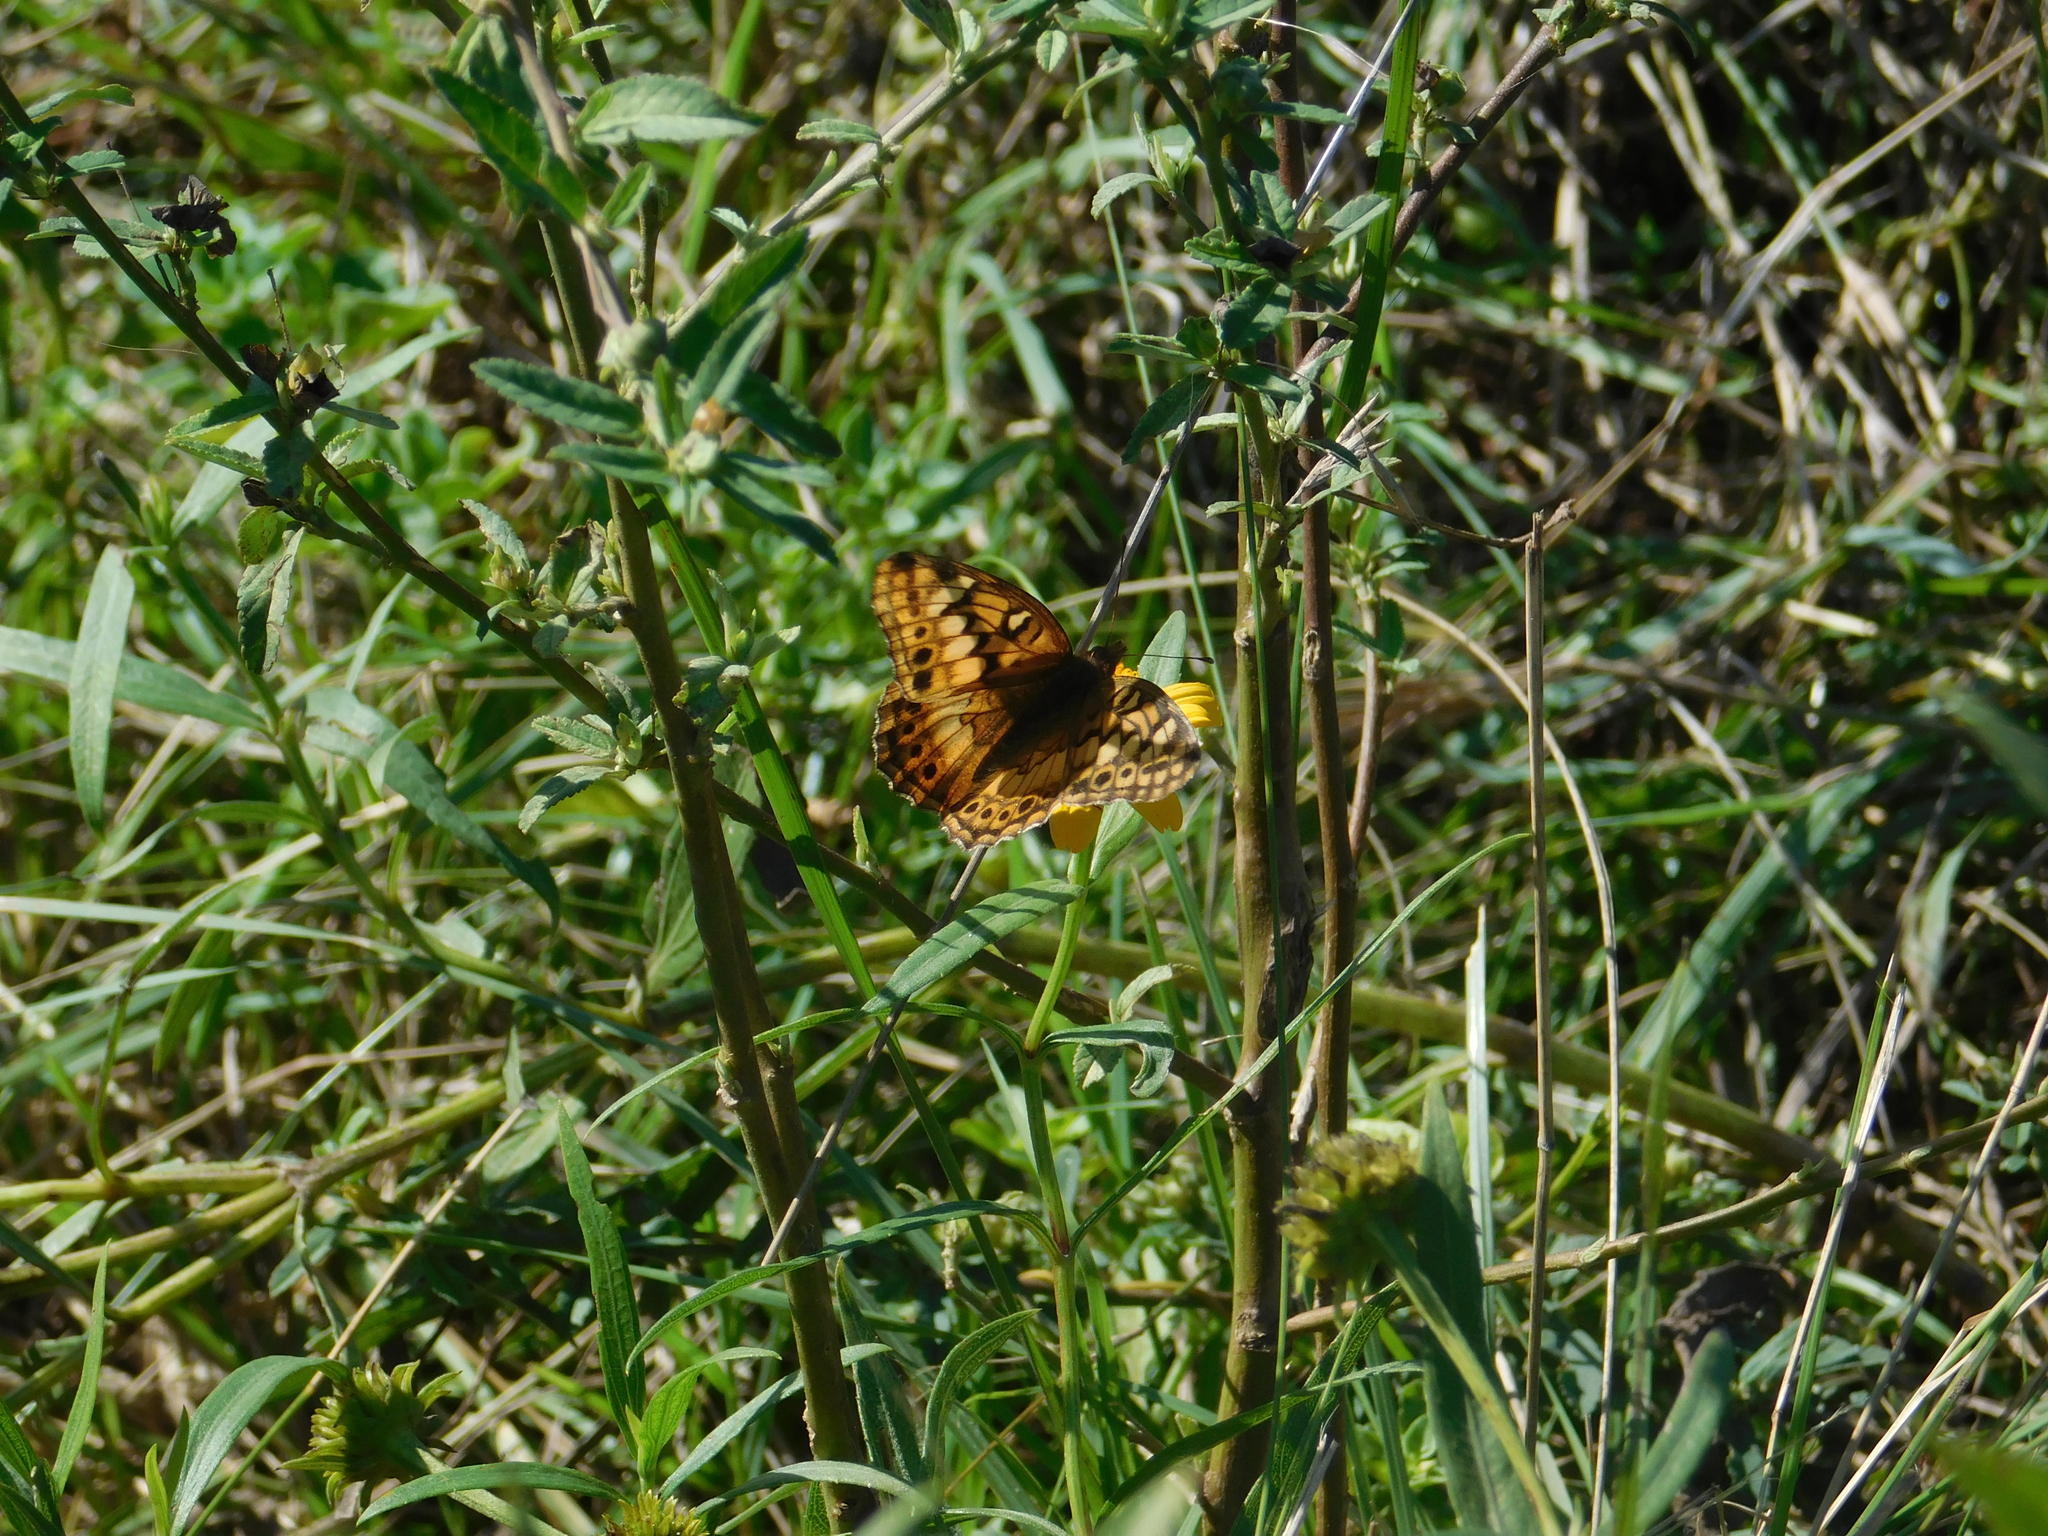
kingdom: Animalia
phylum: Arthropoda
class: Insecta
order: Lepidoptera
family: Nymphalidae
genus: Euptoieta
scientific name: Euptoieta hortensia
